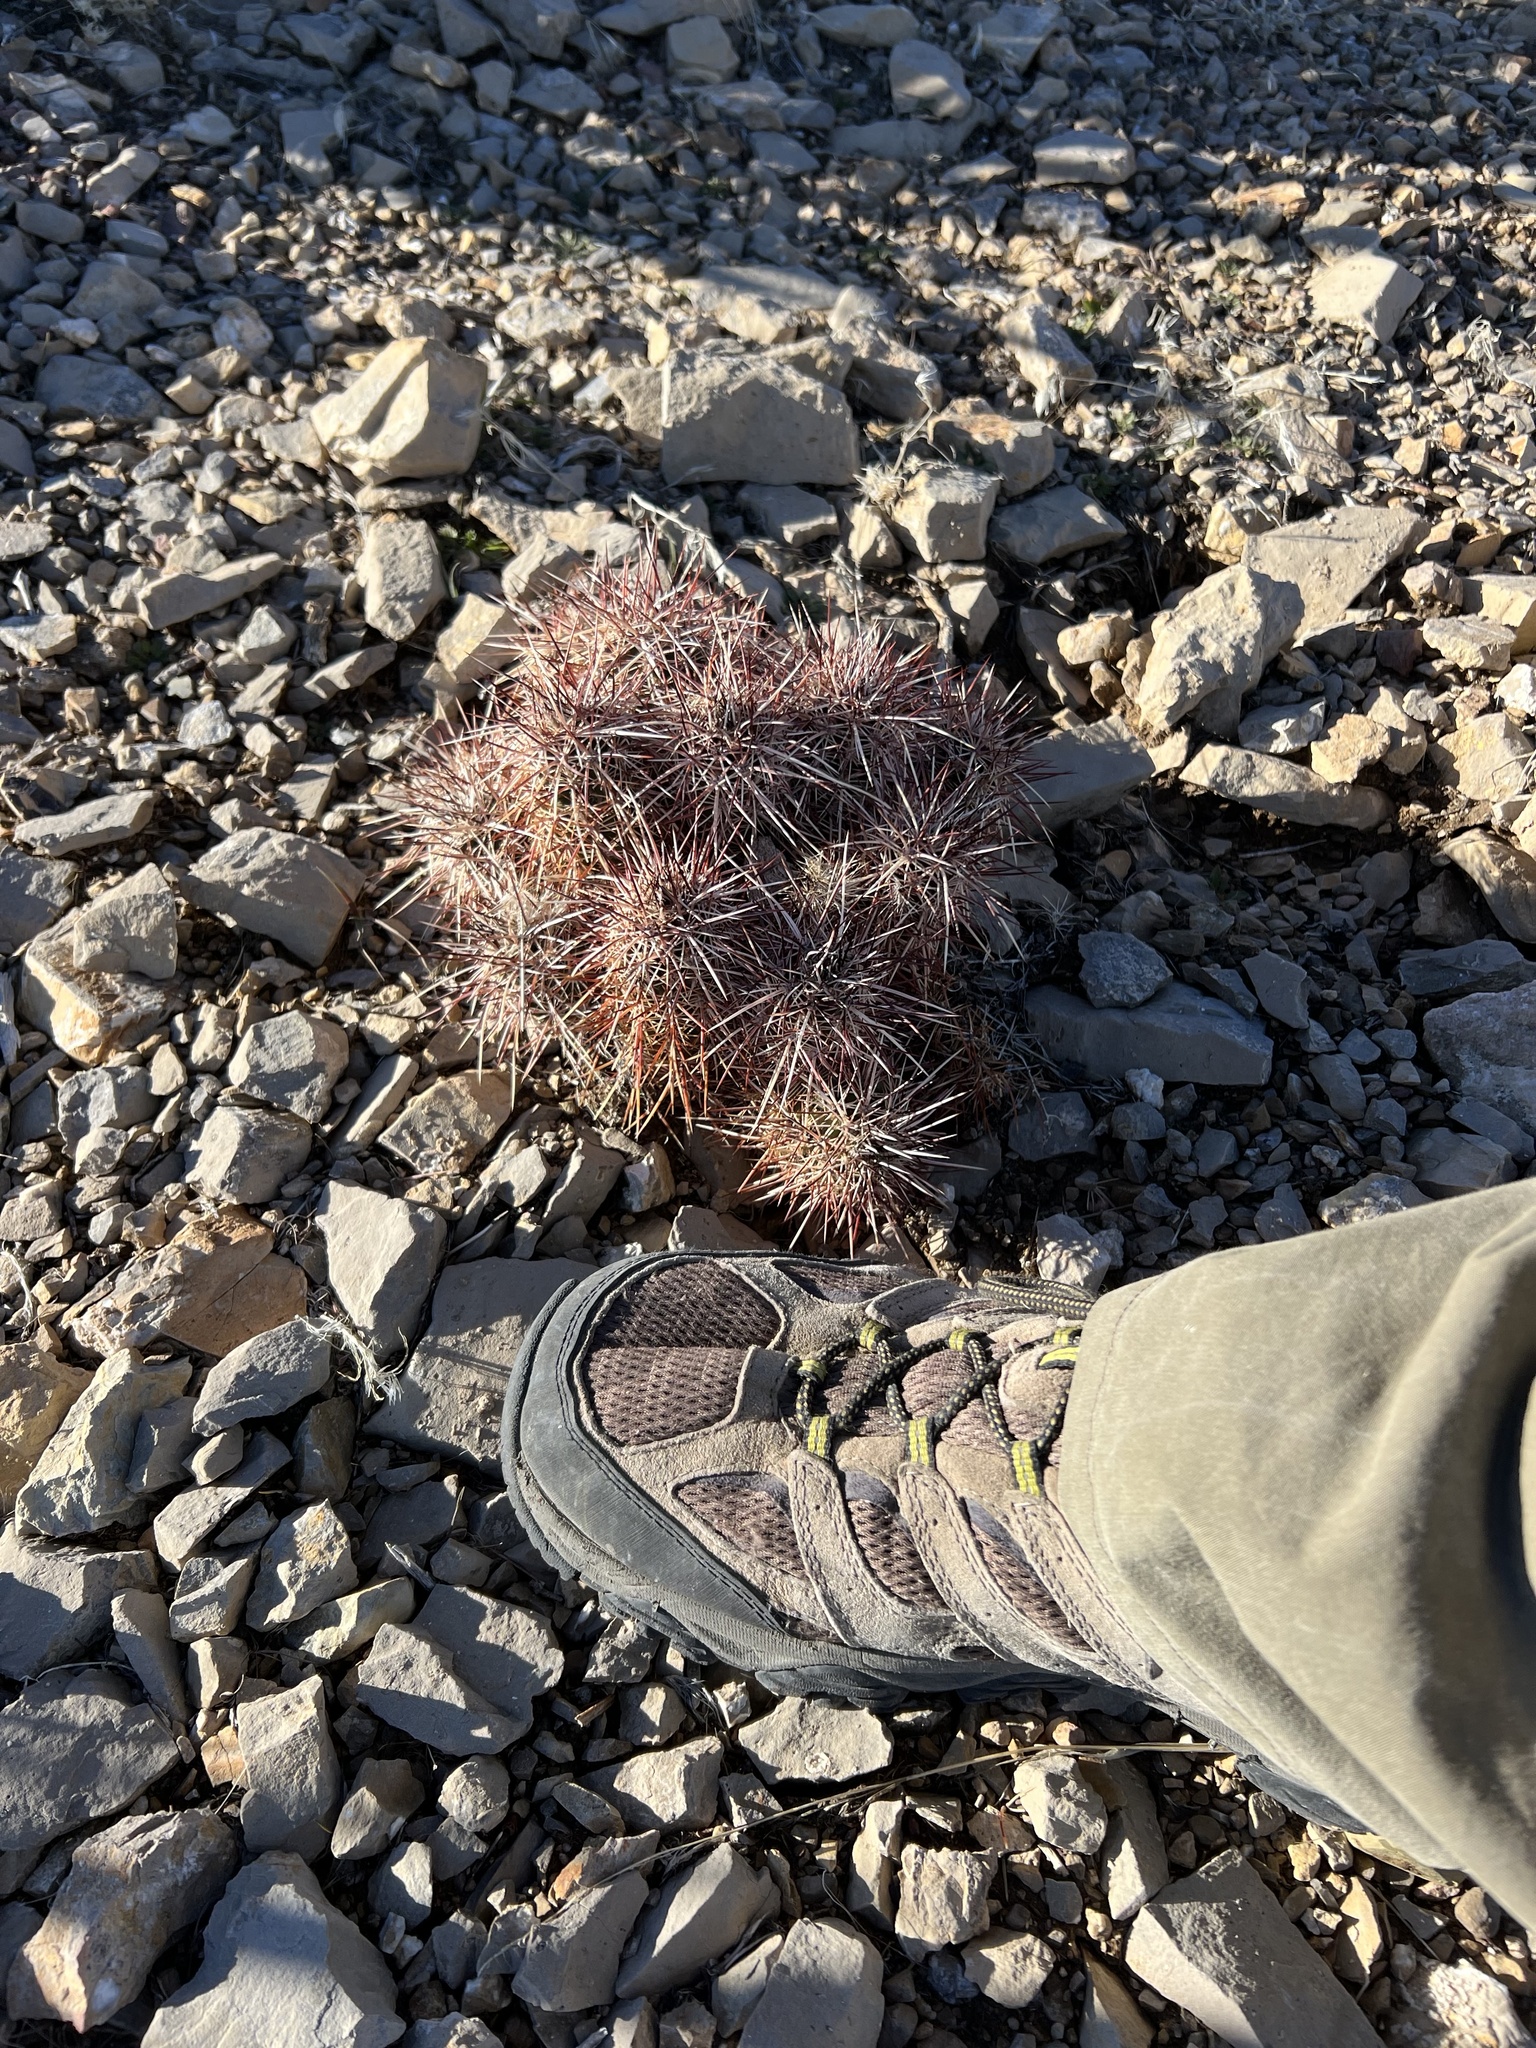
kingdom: Plantae
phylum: Tracheophyta
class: Magnoliopsida
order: Caryophyllales
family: Cactaceae
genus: Echinocereus
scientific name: Echinocereus engelmannii
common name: Engelmann's hedgehog cactus
